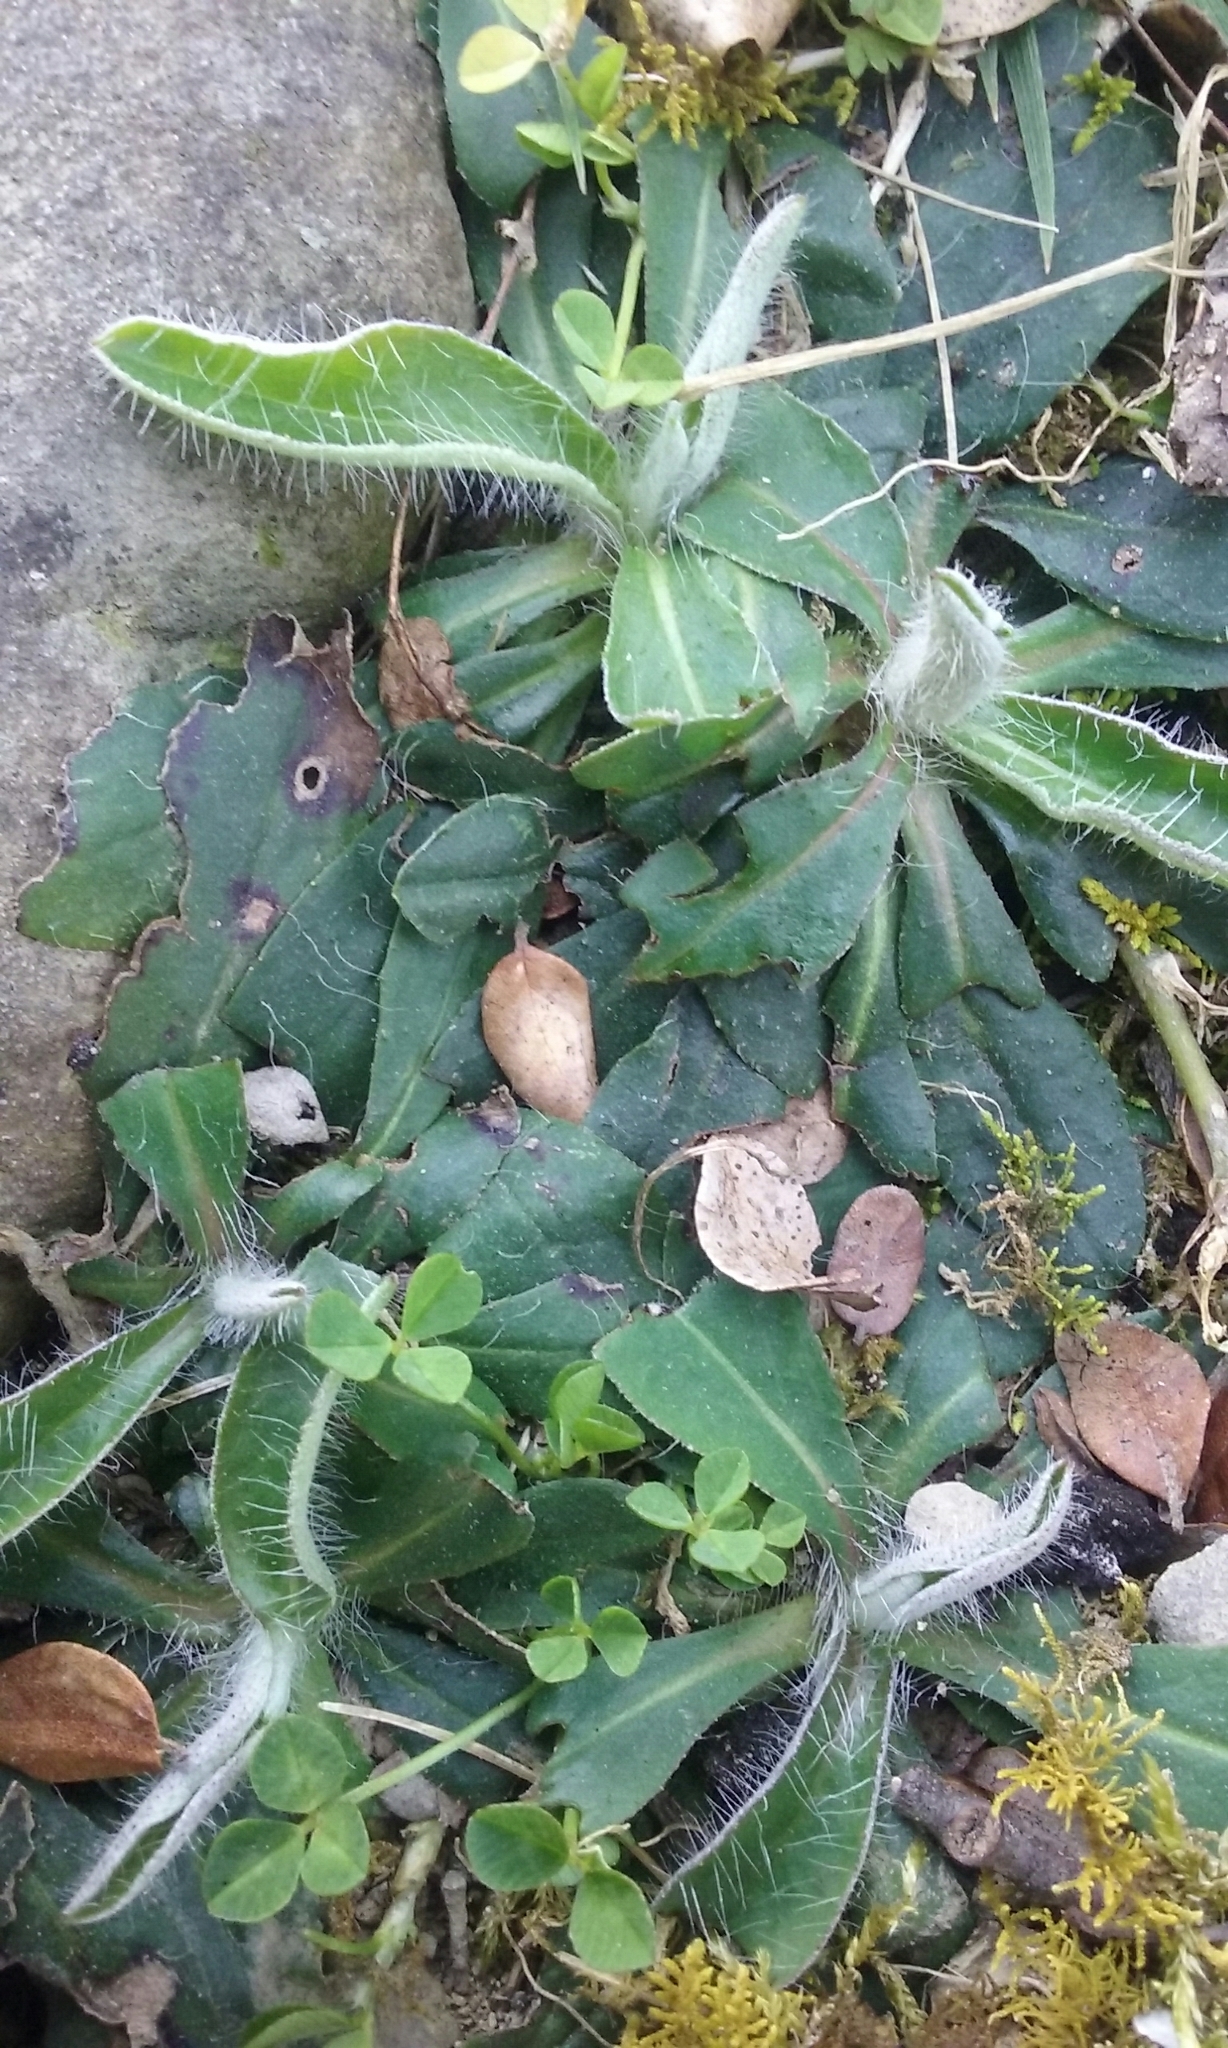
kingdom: Plantae
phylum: Tracheophyta
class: Magnoliopsida
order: Asterales
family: Asteraceae
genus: Pilosella
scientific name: Pilosella officinarum
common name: Mouse-ear hawkweed
